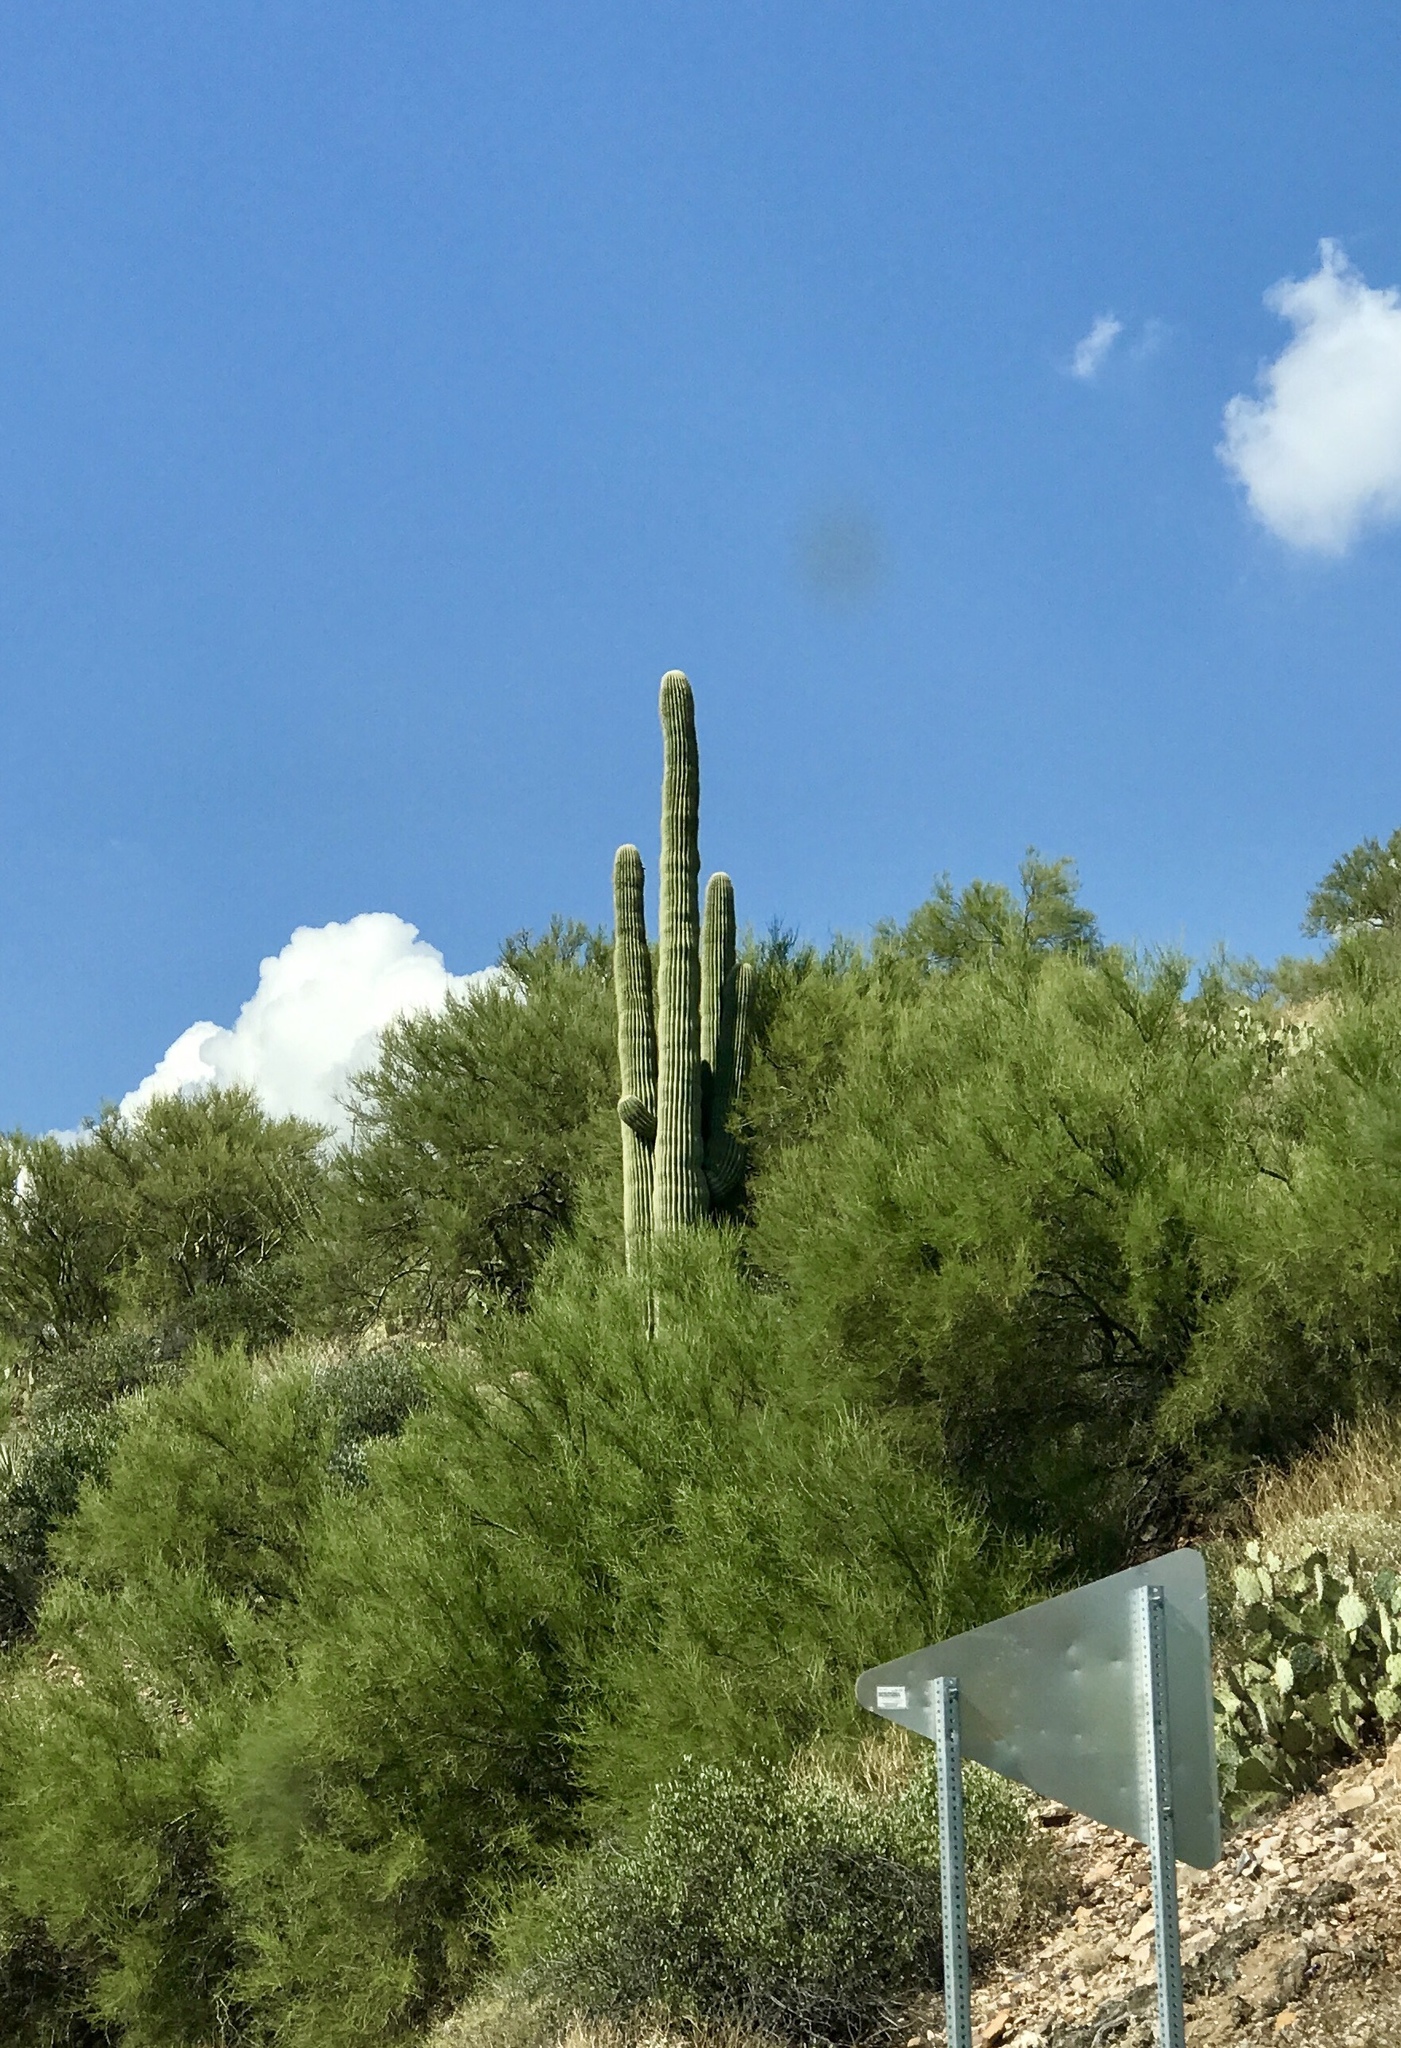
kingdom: Plantae
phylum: Tracheophyta
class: Magnoliopsida
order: Caryophyllales
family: Cactaceae
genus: Carnegiea
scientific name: Carnegiea gigantea
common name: Saguaro
